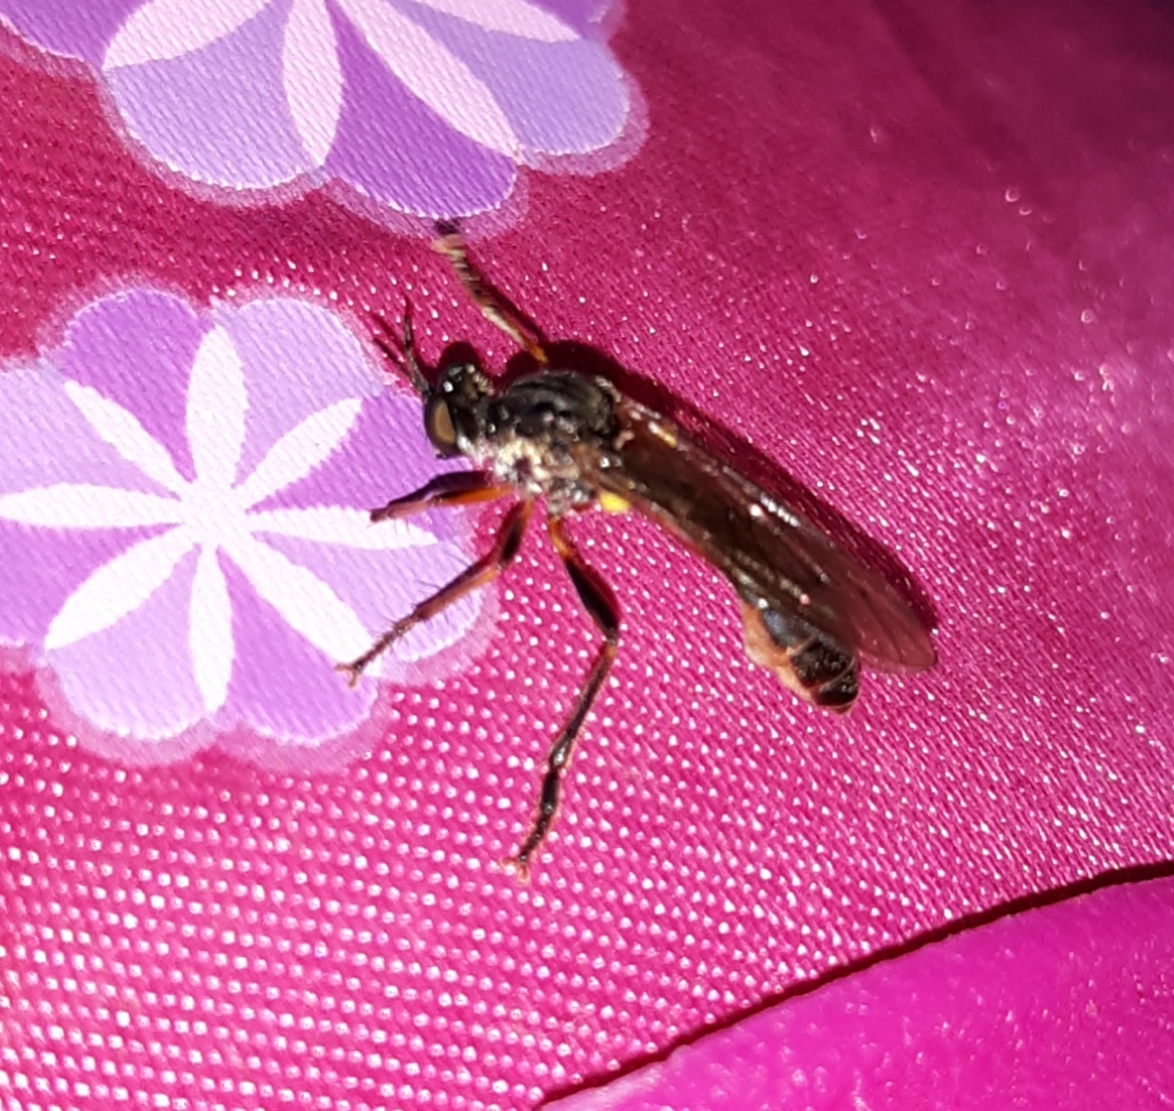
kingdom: Animalia
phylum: Arthropoda
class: Insecta
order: Diptera
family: Asilidae
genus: Dioctria
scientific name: Dioctria hyalipennis
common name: Stripe-legged robberfly
